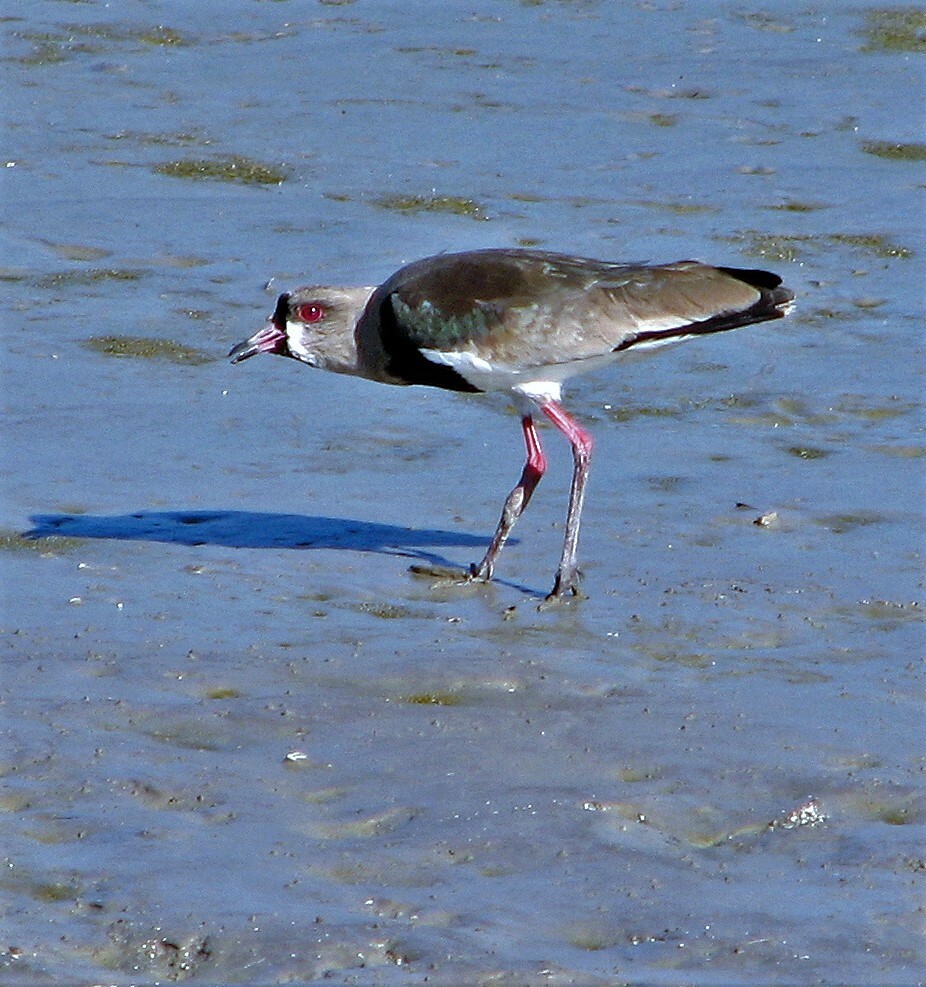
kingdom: Animalia
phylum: Chordata
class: Aves
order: Charadriiformes
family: Charadriidae
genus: Vanellus
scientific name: Vanellus chilensis
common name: Southern lapwing
